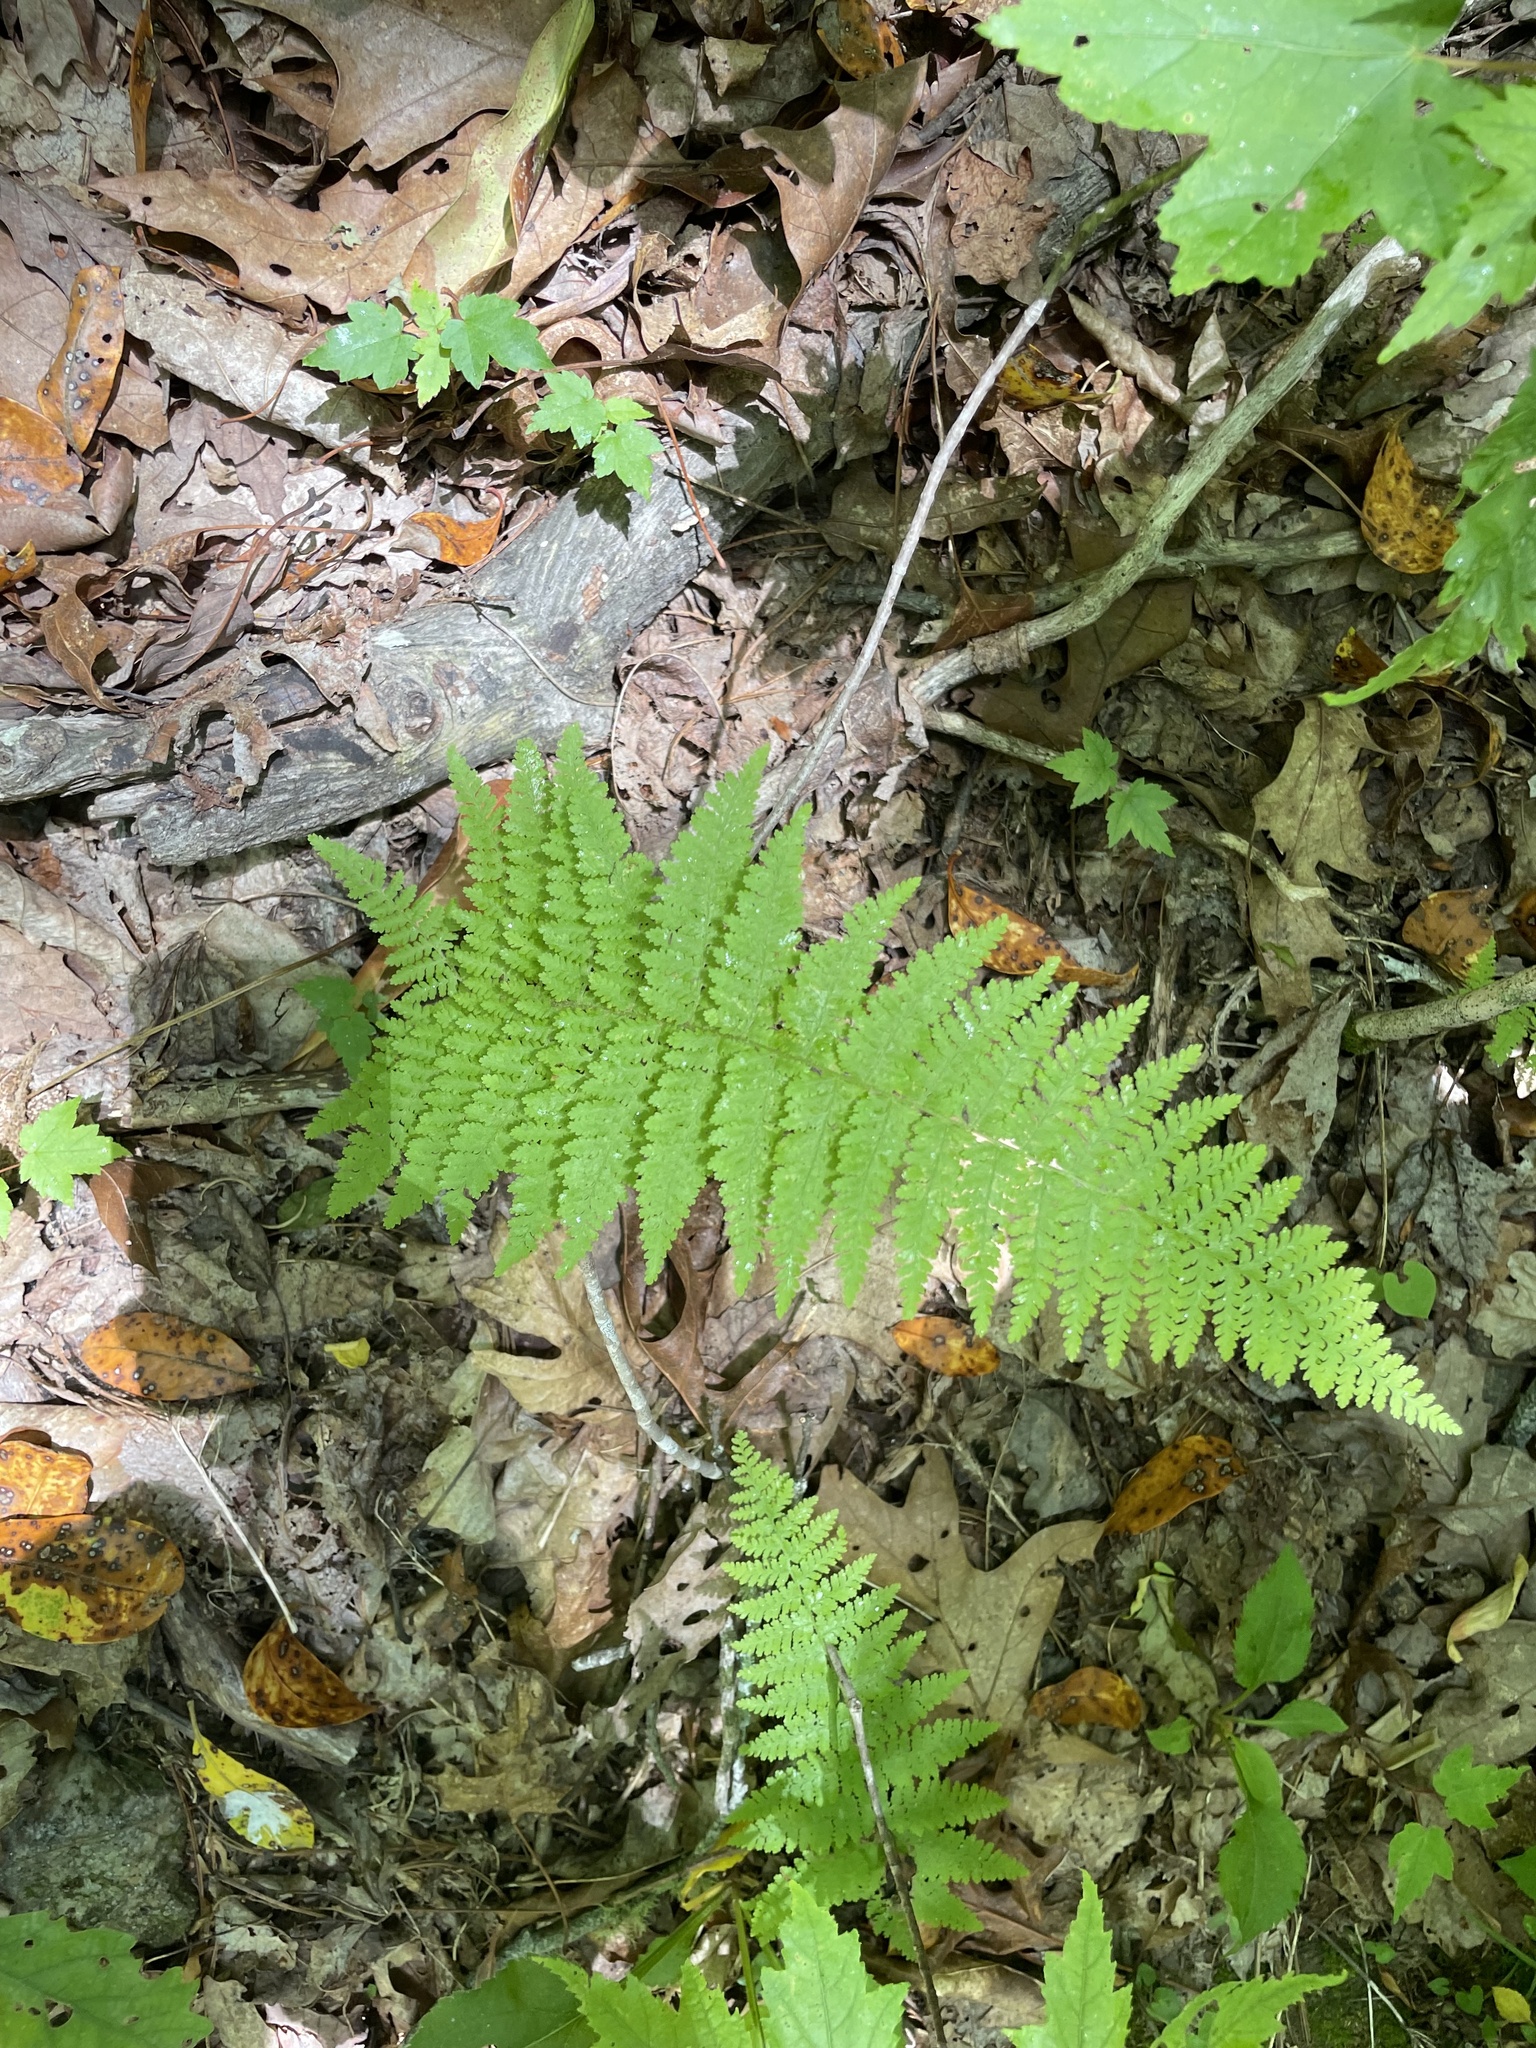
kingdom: Plantae
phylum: Tracheophyta
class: Polypodiopsida
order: Polypodiales
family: Dennstaedtiaceae
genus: Sitobolium
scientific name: Sitobolium punctilobum
